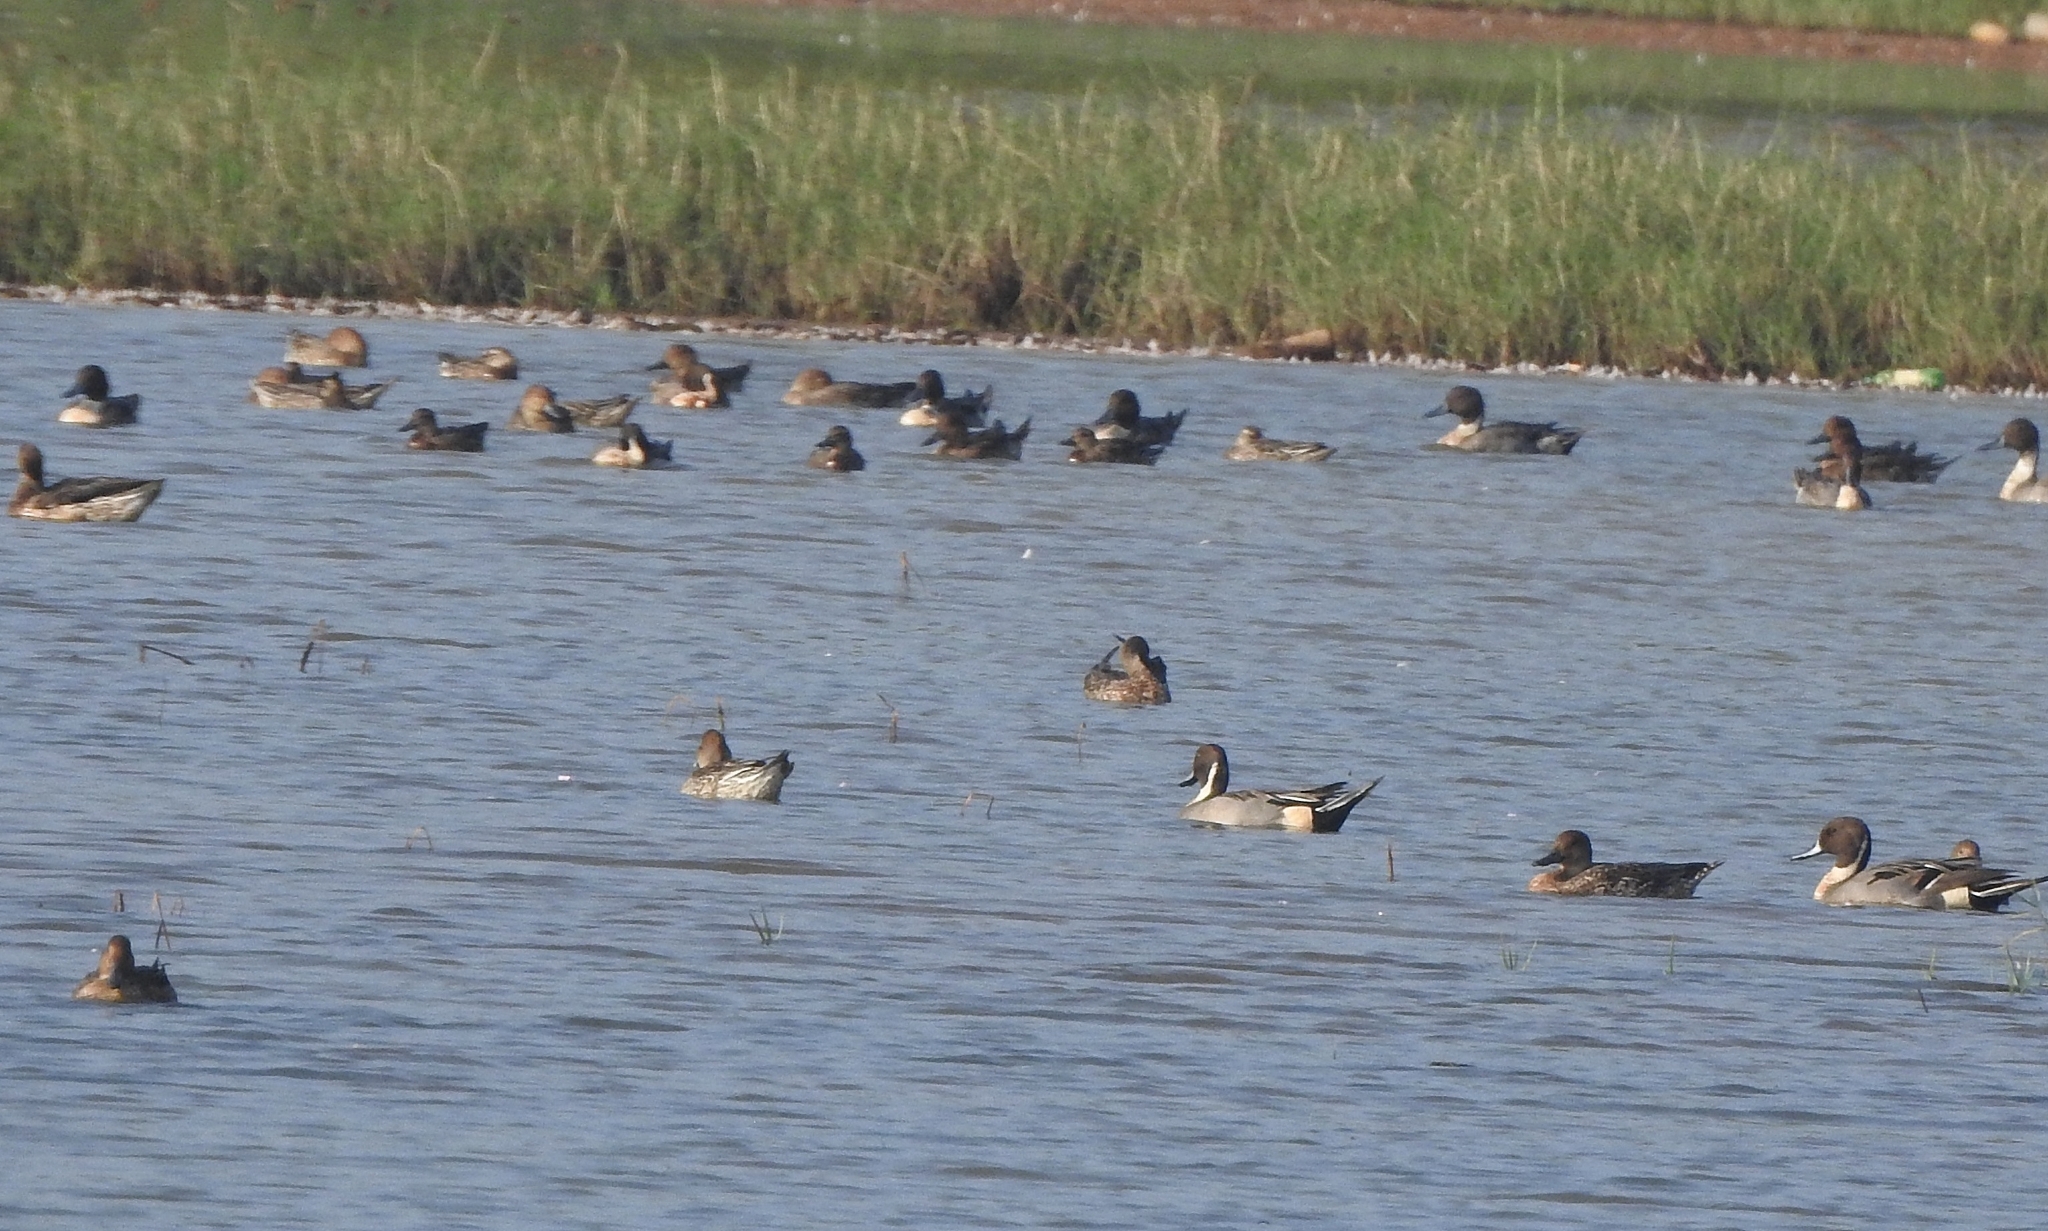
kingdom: Animalia
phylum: Chordata
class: Aves
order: Anseriformes
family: Anatidae
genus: Anas
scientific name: Anas acuta
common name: Northern pintail
